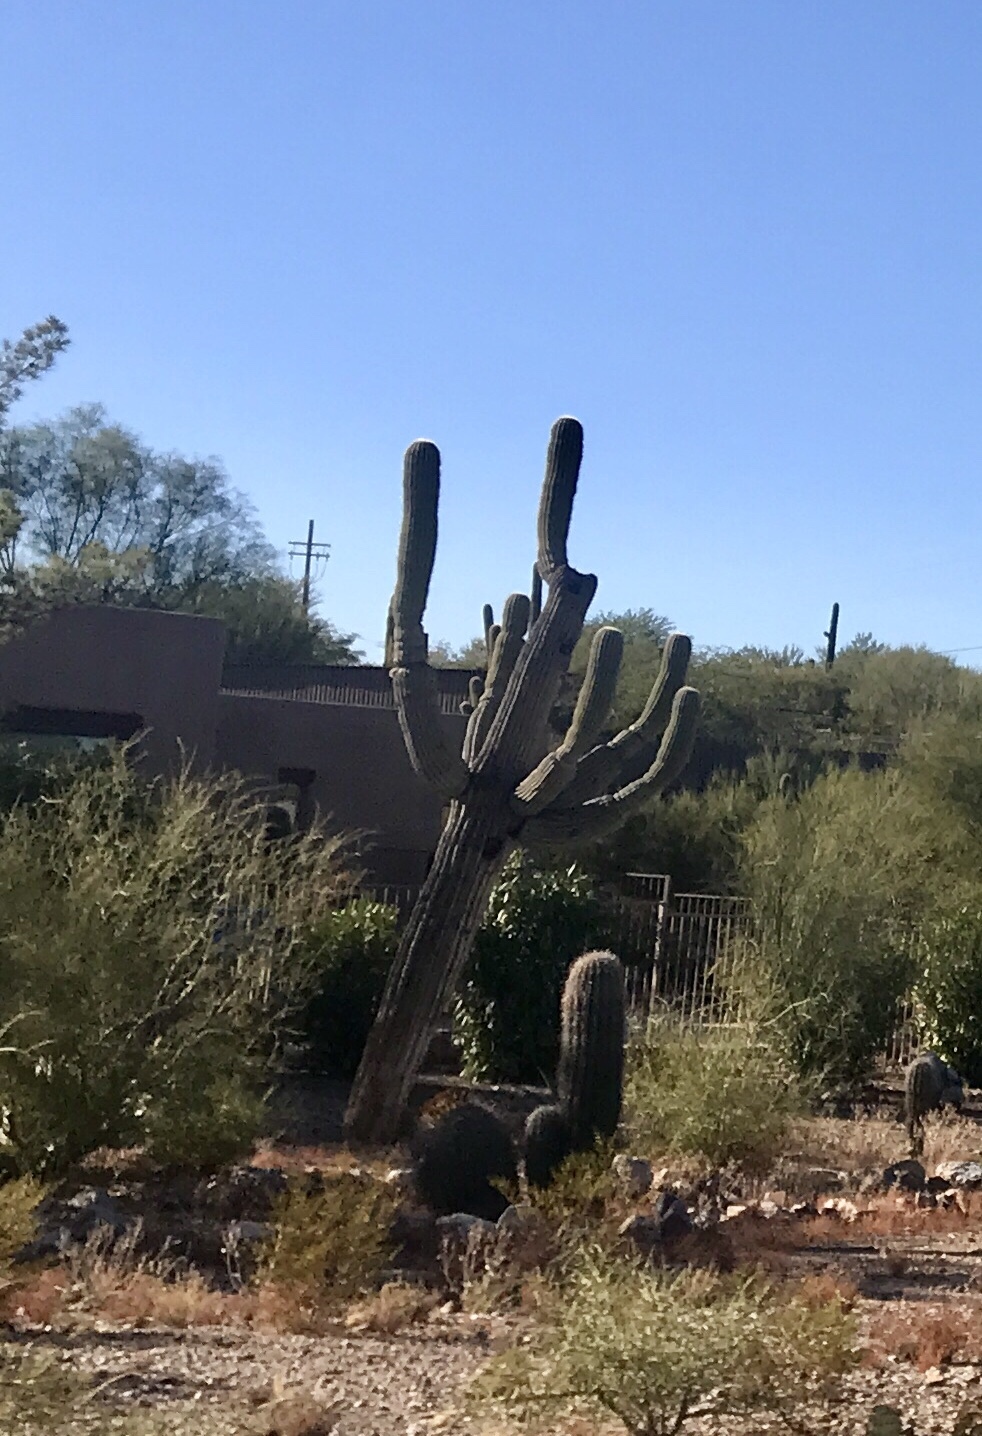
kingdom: Plantae
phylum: Tracheophyta
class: Magnoliopsida
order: Caryophyllales
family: Cactaceae
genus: Carnegiea
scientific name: Carnegiea gigantea
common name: Saguaro
